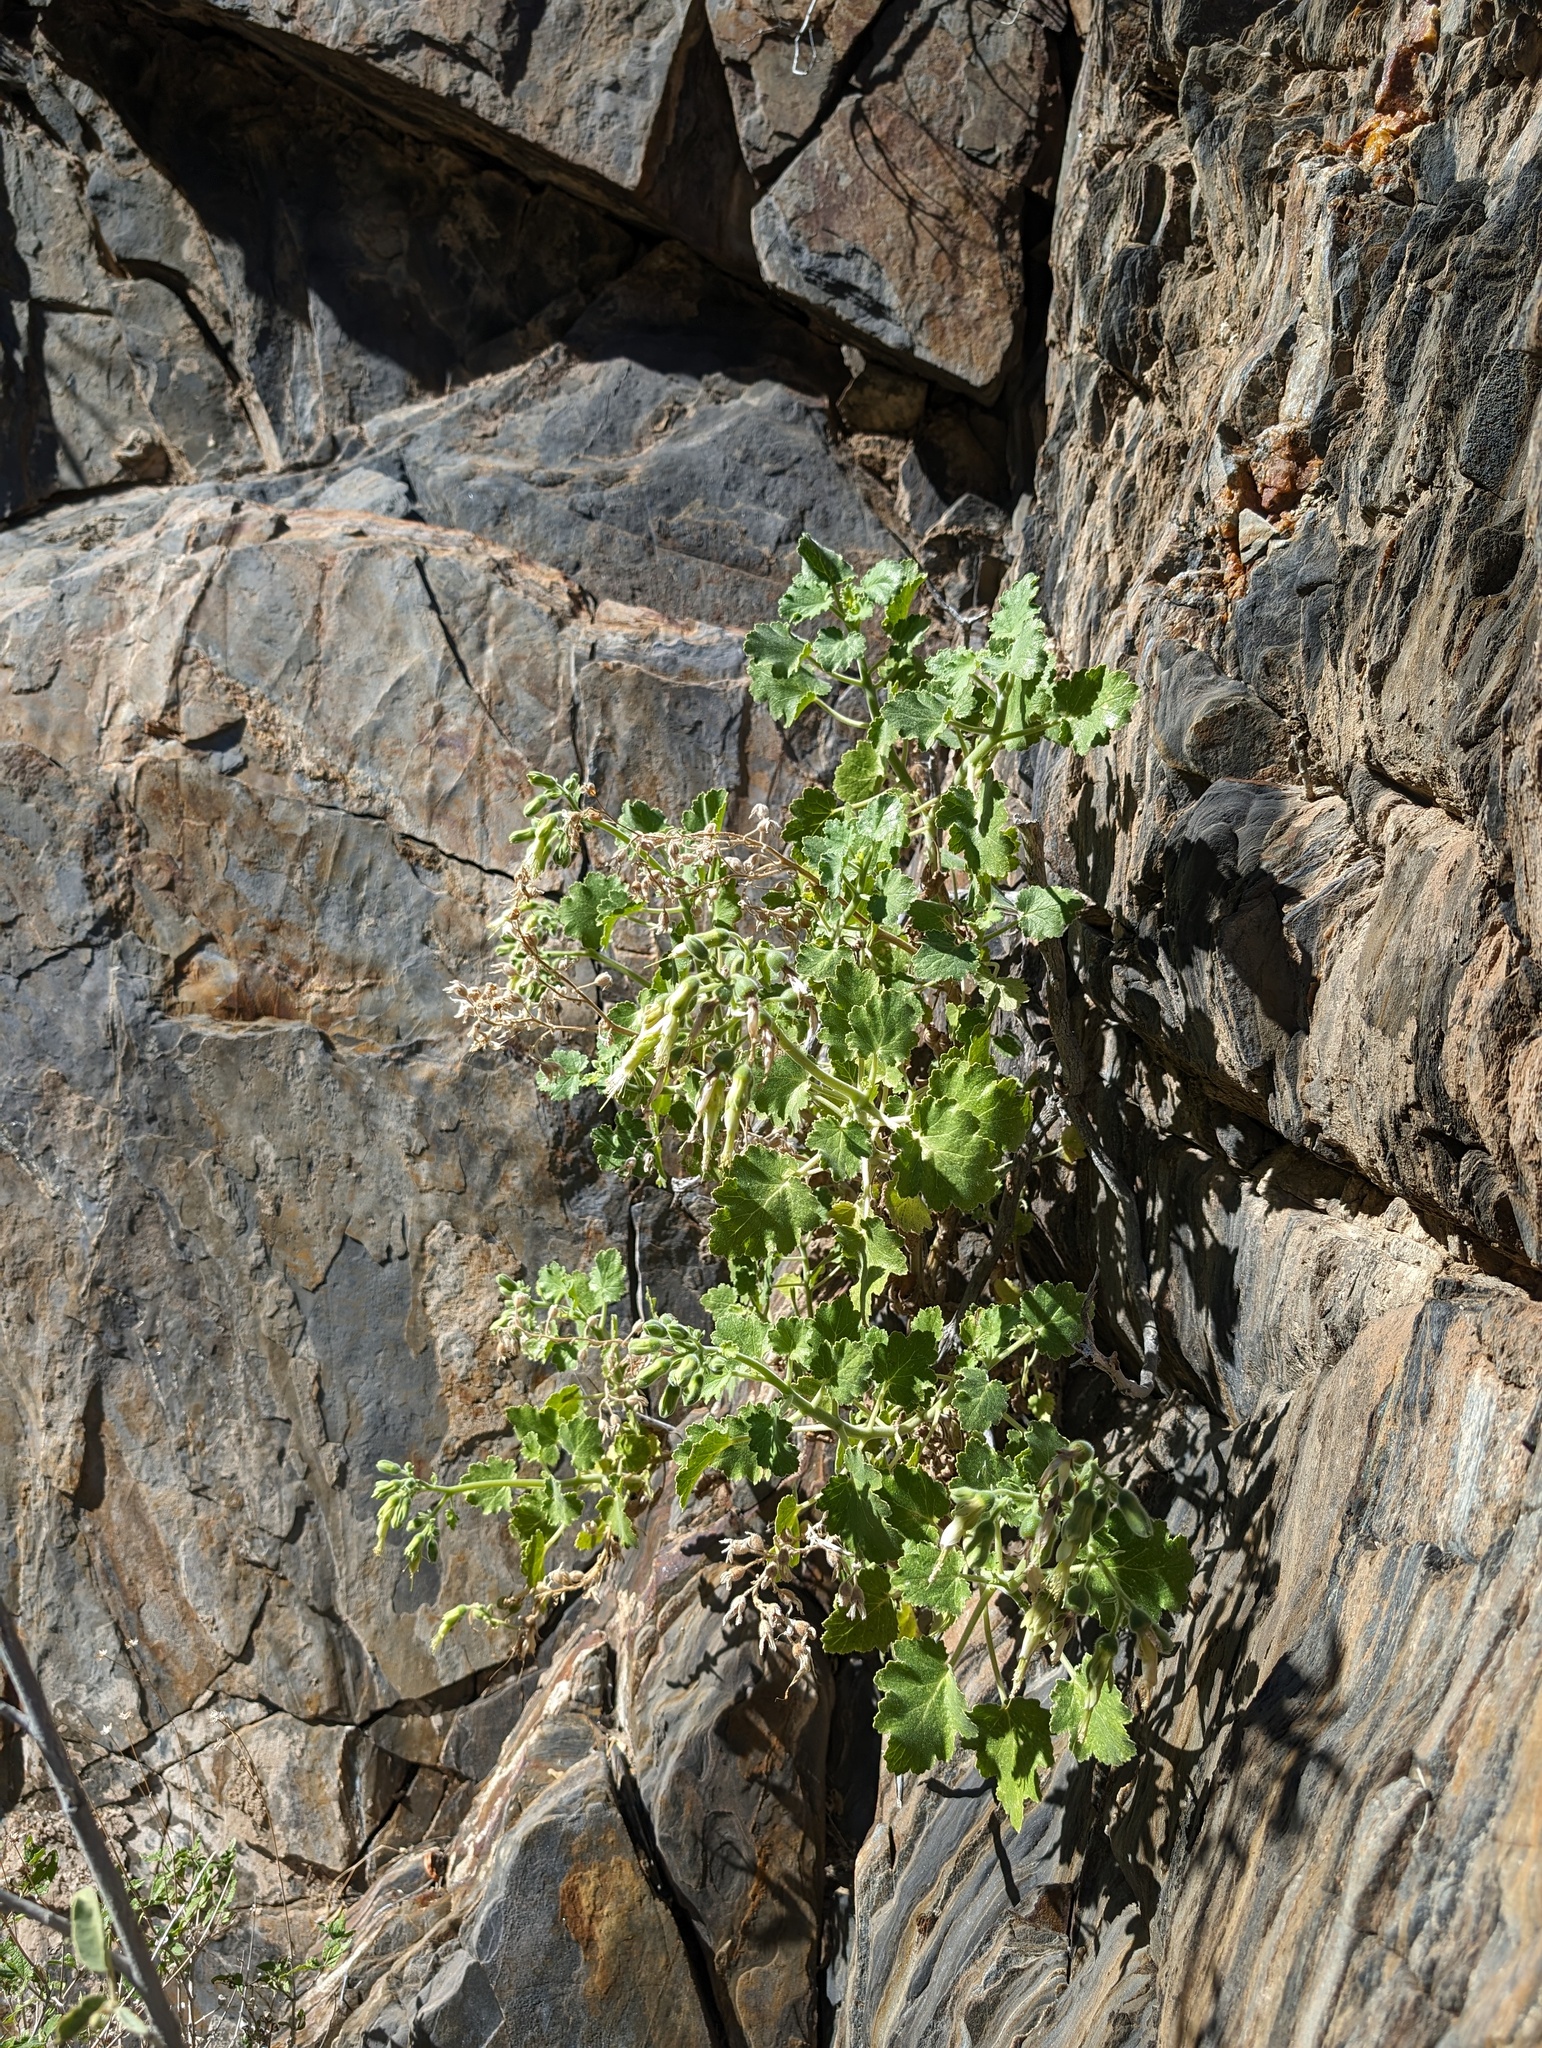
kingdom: Plantae
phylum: Tracheophyta
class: Magnoliopsida
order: Cornales
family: Loasaceae
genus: Eucnide
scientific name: Eucnide cordata
